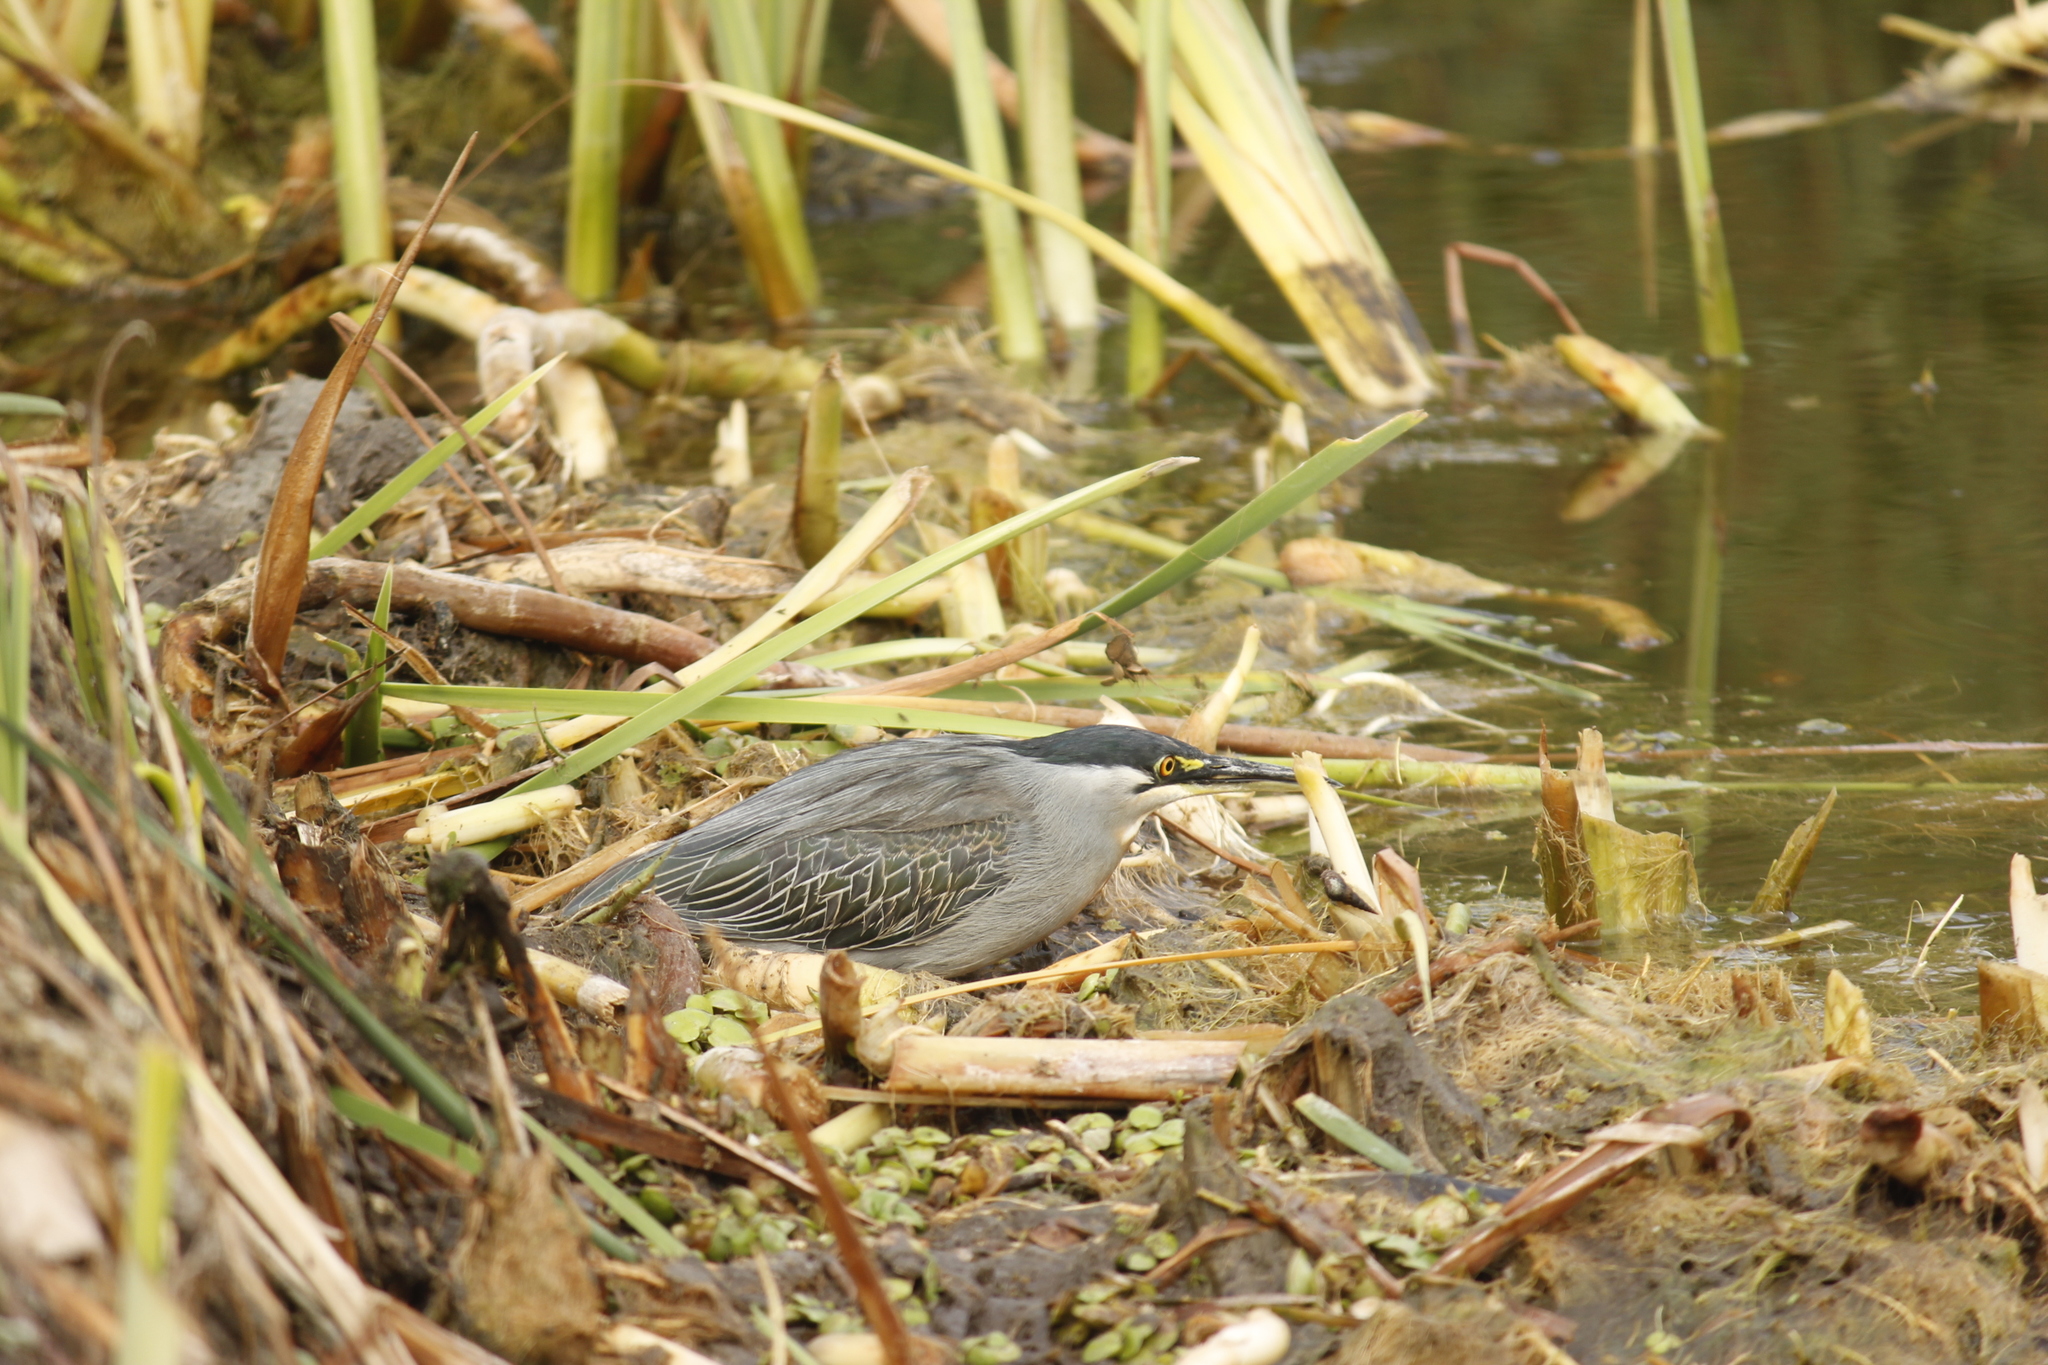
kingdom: Animalia
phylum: Chordata
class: Aves
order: Pelecaniformes
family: Ardeidae
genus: Butorides
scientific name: Butorides striata
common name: Striated heron
